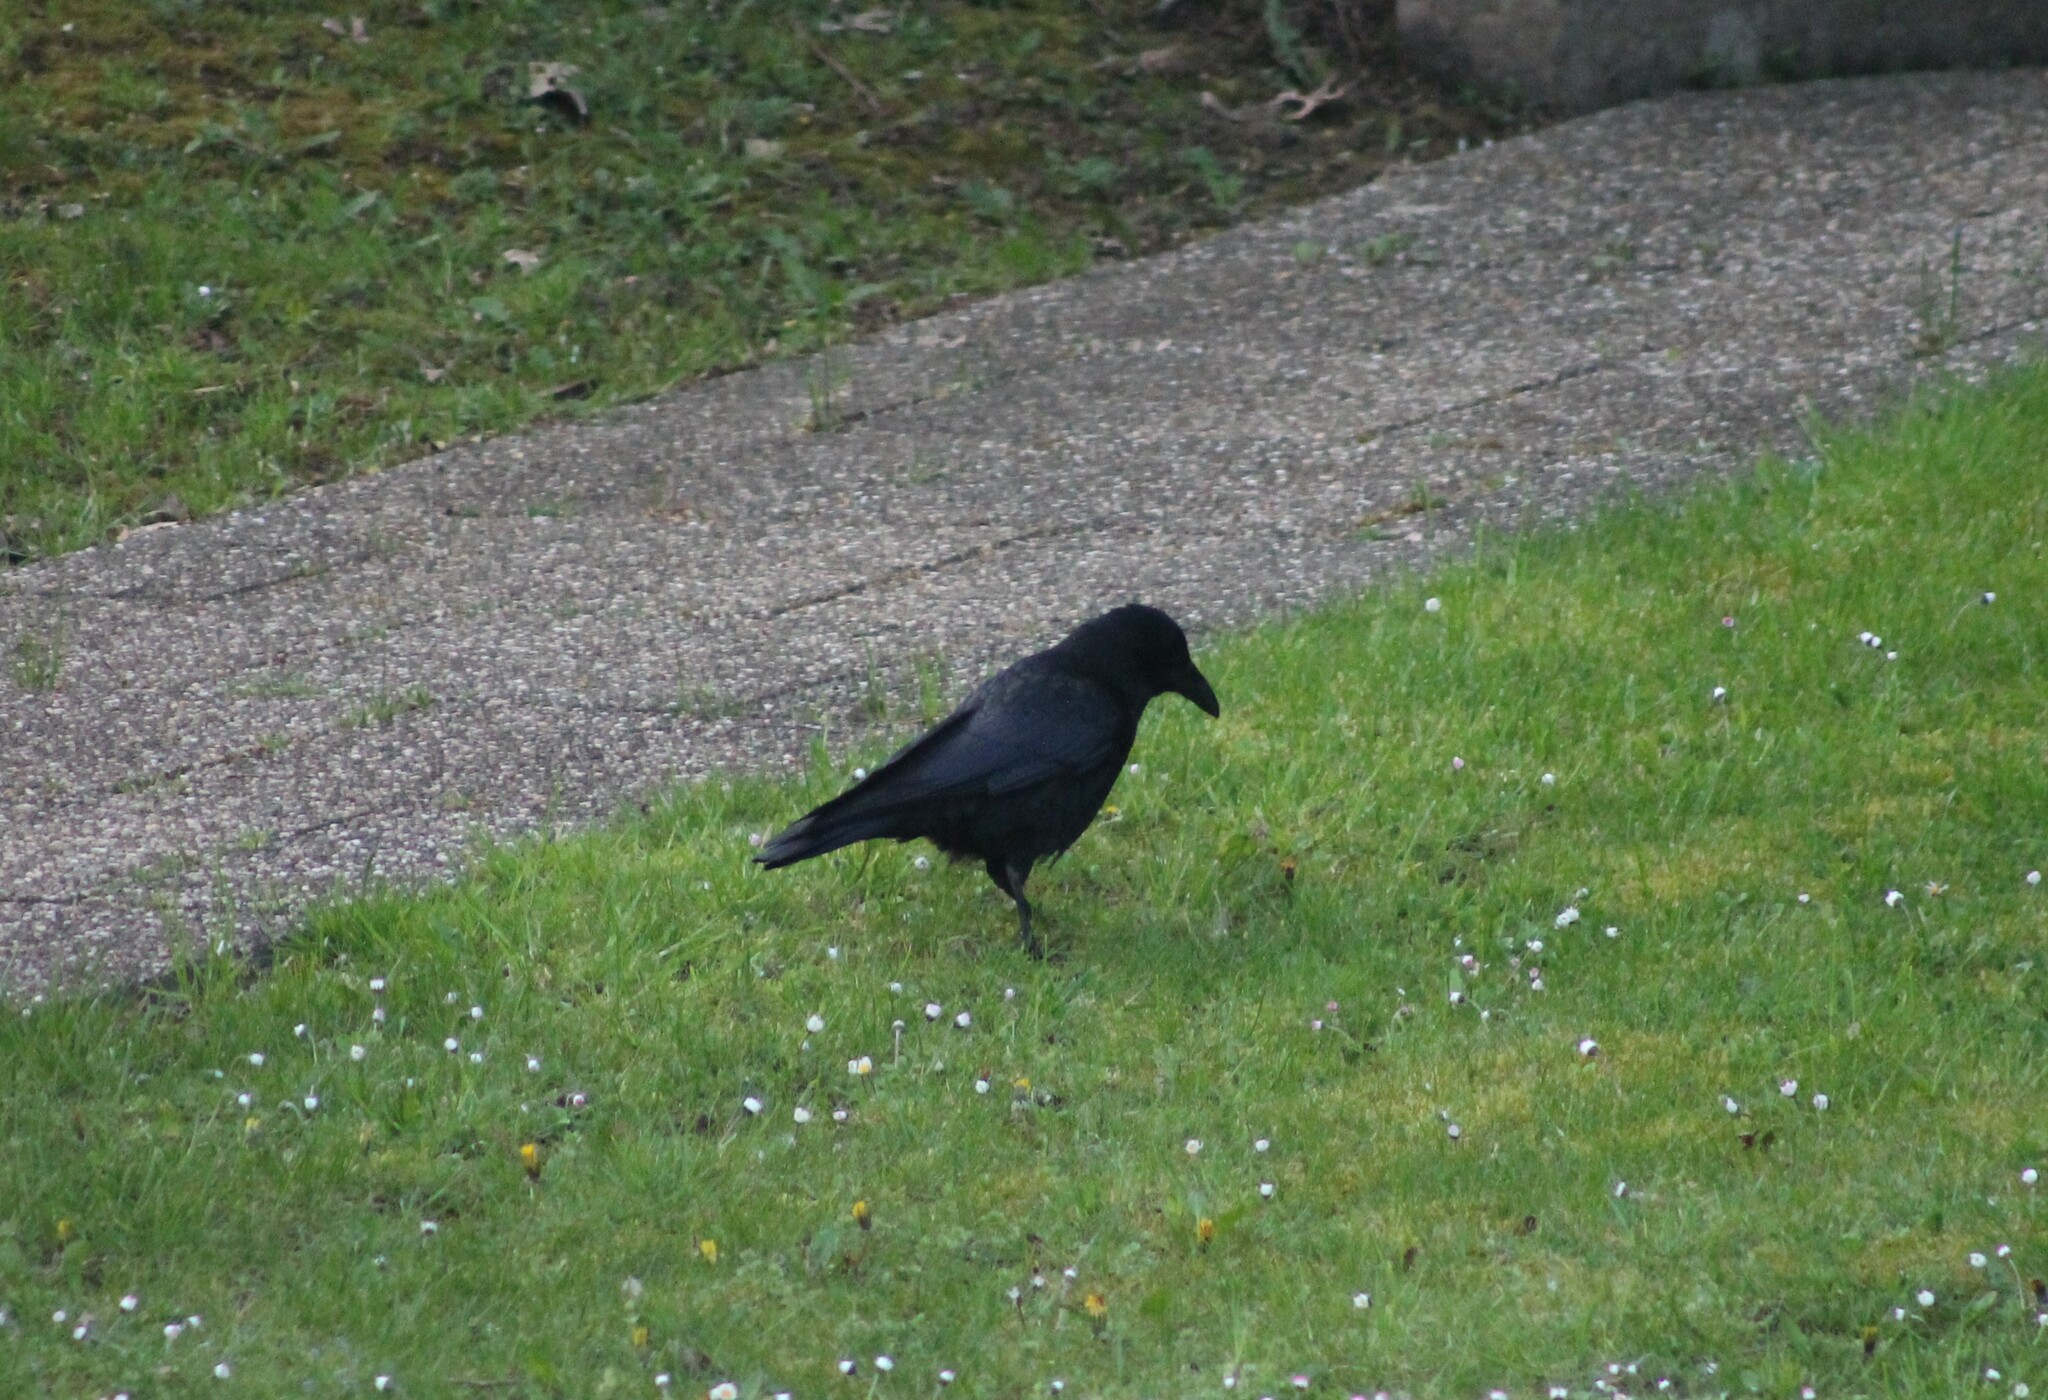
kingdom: Animalia
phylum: Chordata
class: Aves
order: Passeriformes
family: Corvidae
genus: Corvus
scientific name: Corvus corone
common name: Carrion crow
